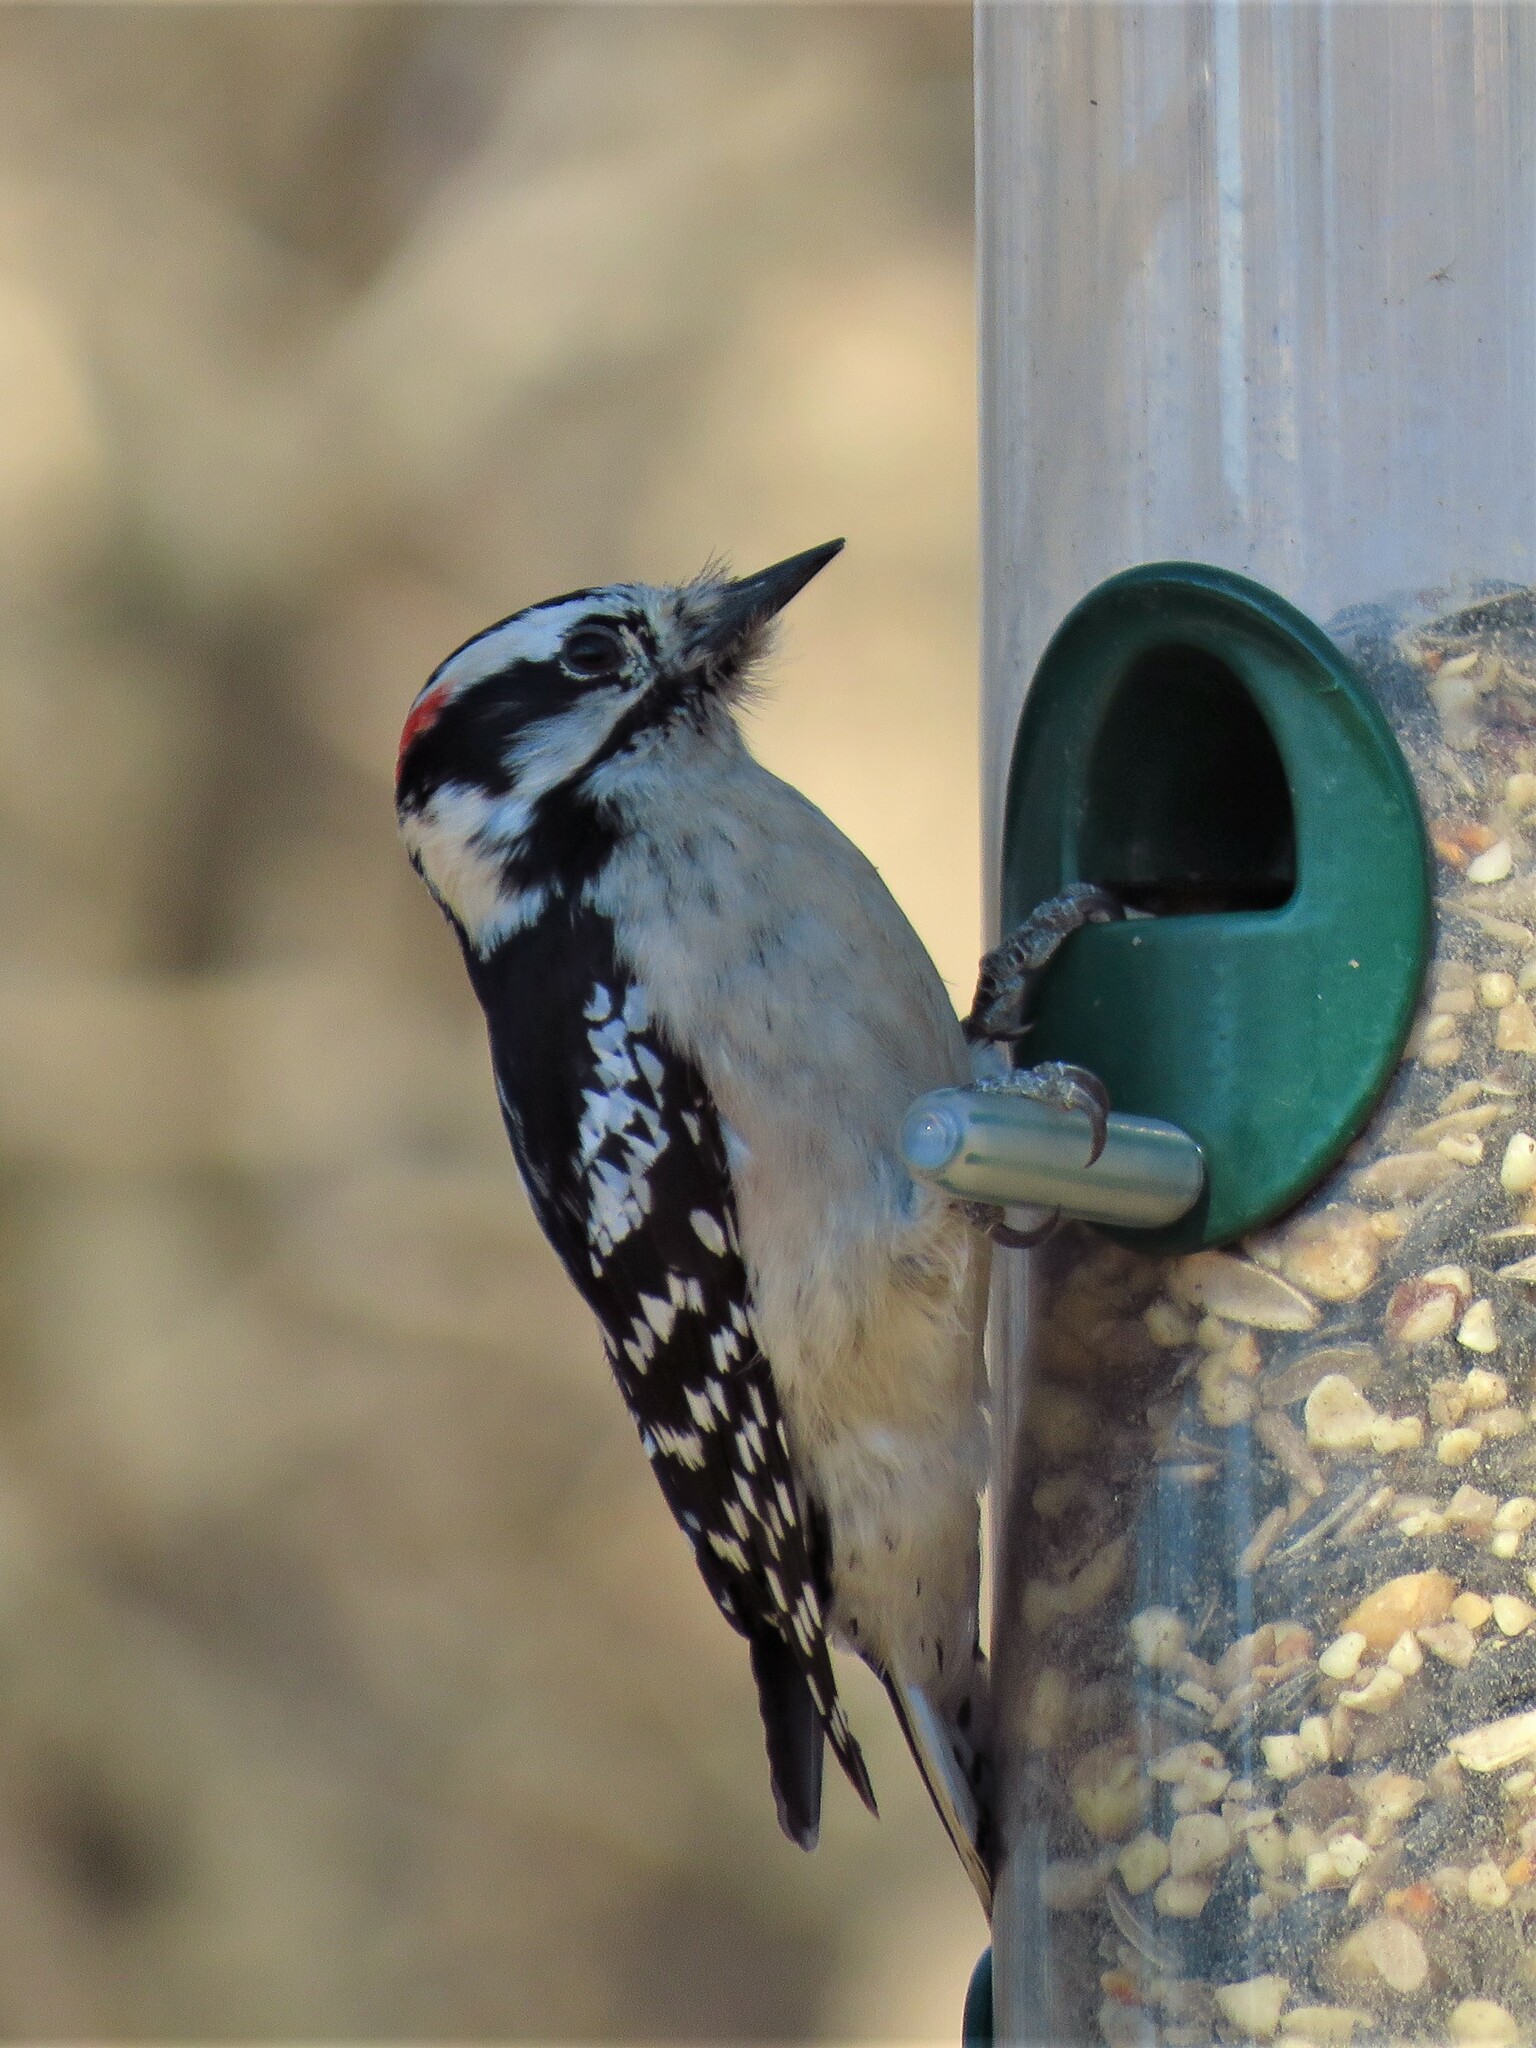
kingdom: Animalia
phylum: Chordata
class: Aves
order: Piciformes
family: Picidae
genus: Dryobates
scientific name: Dryobates pubescens
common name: Downy woodpecker
